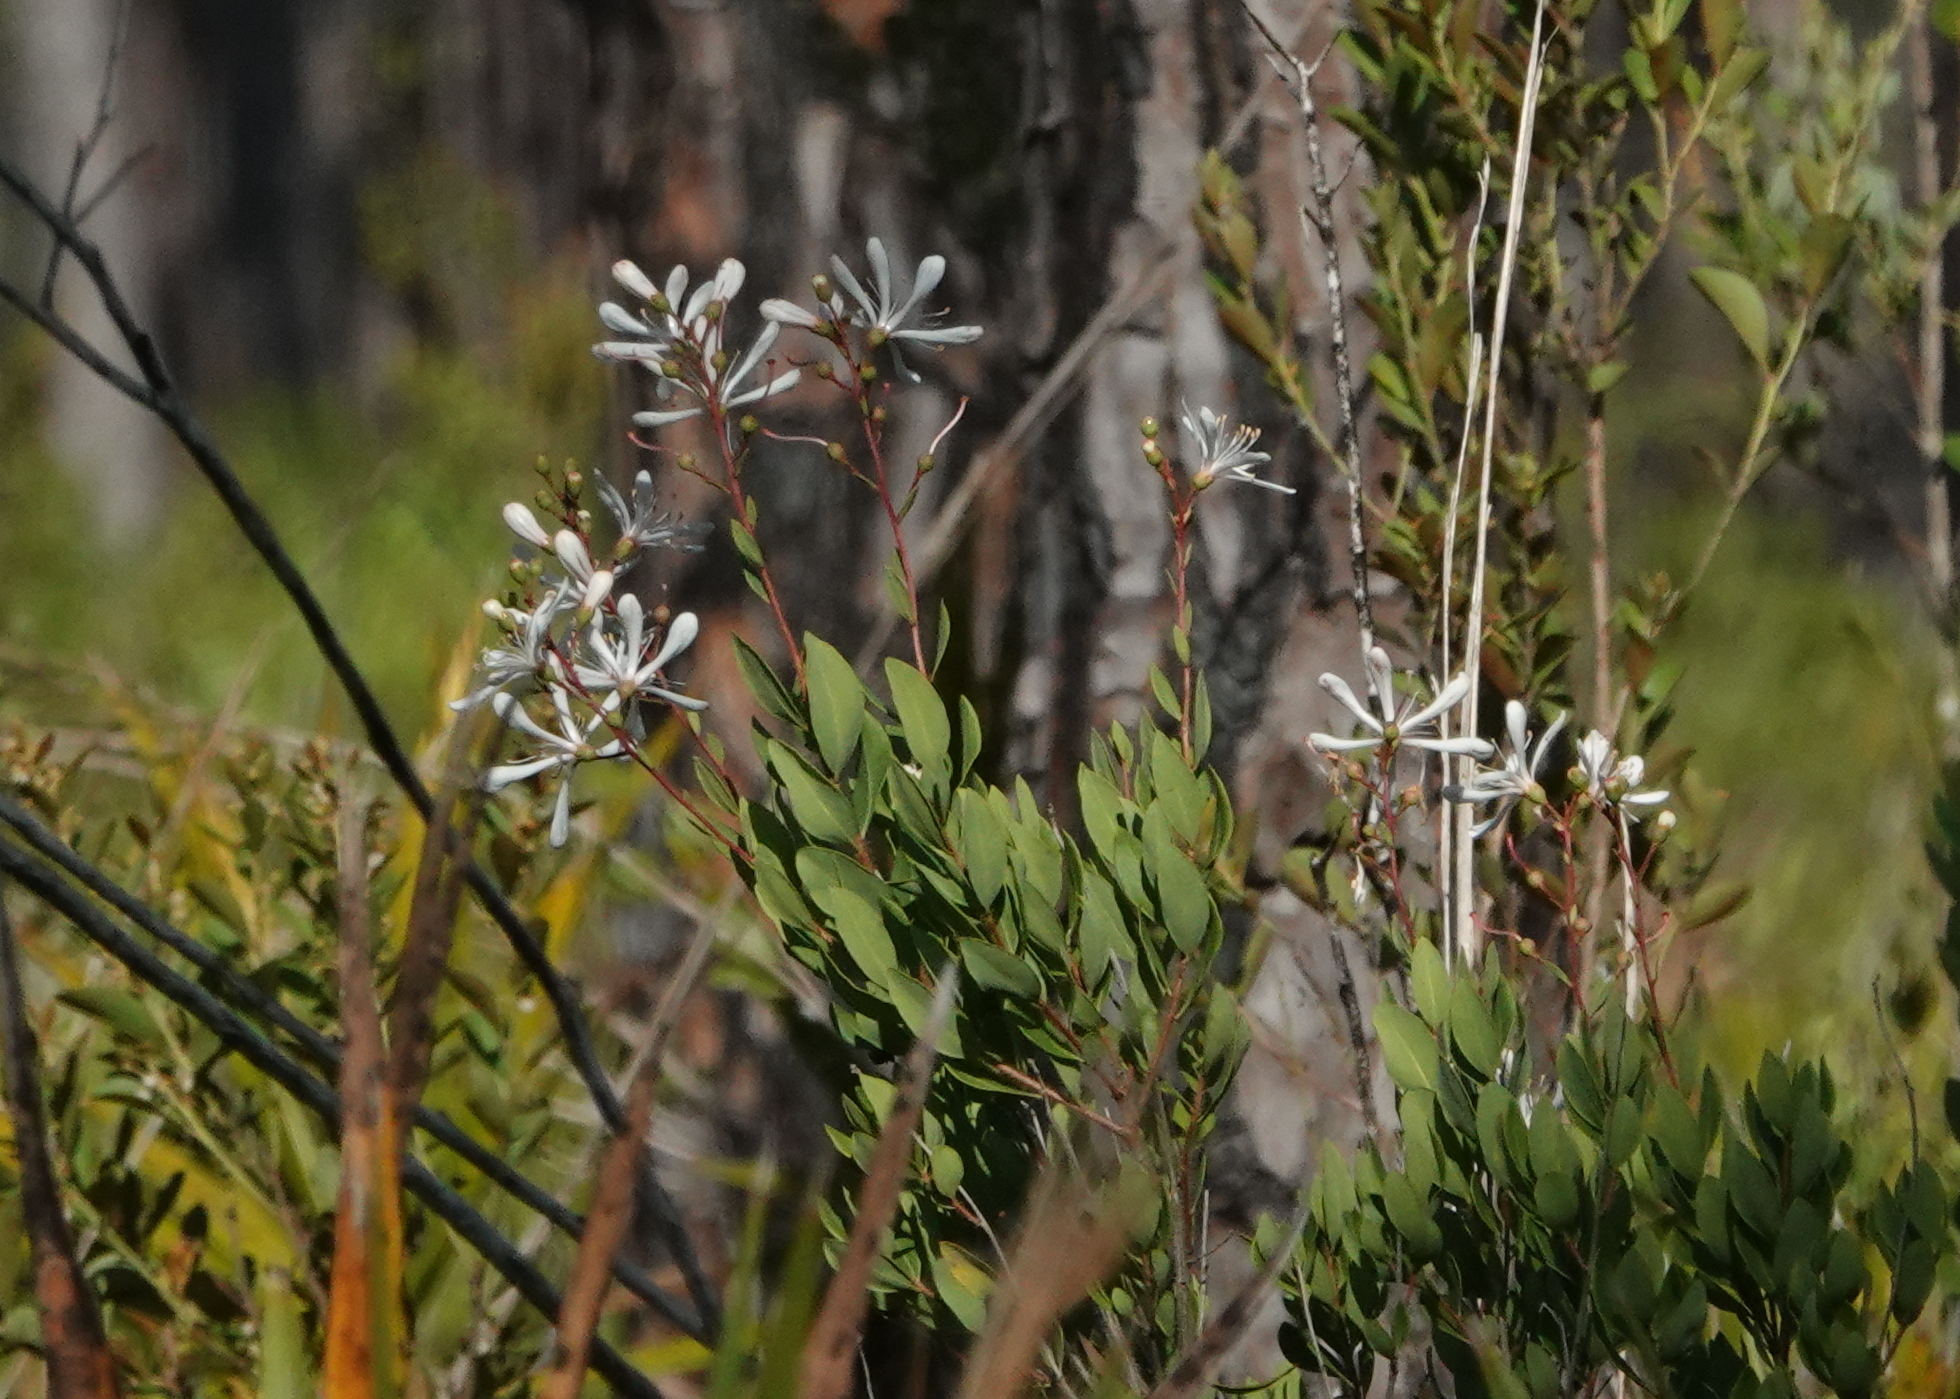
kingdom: Plantae
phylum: Tracheophyta
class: Magnoliopsida
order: Ericales
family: Ericaceae
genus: Bejaria
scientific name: Bejaria racemosa
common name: Tarflower
